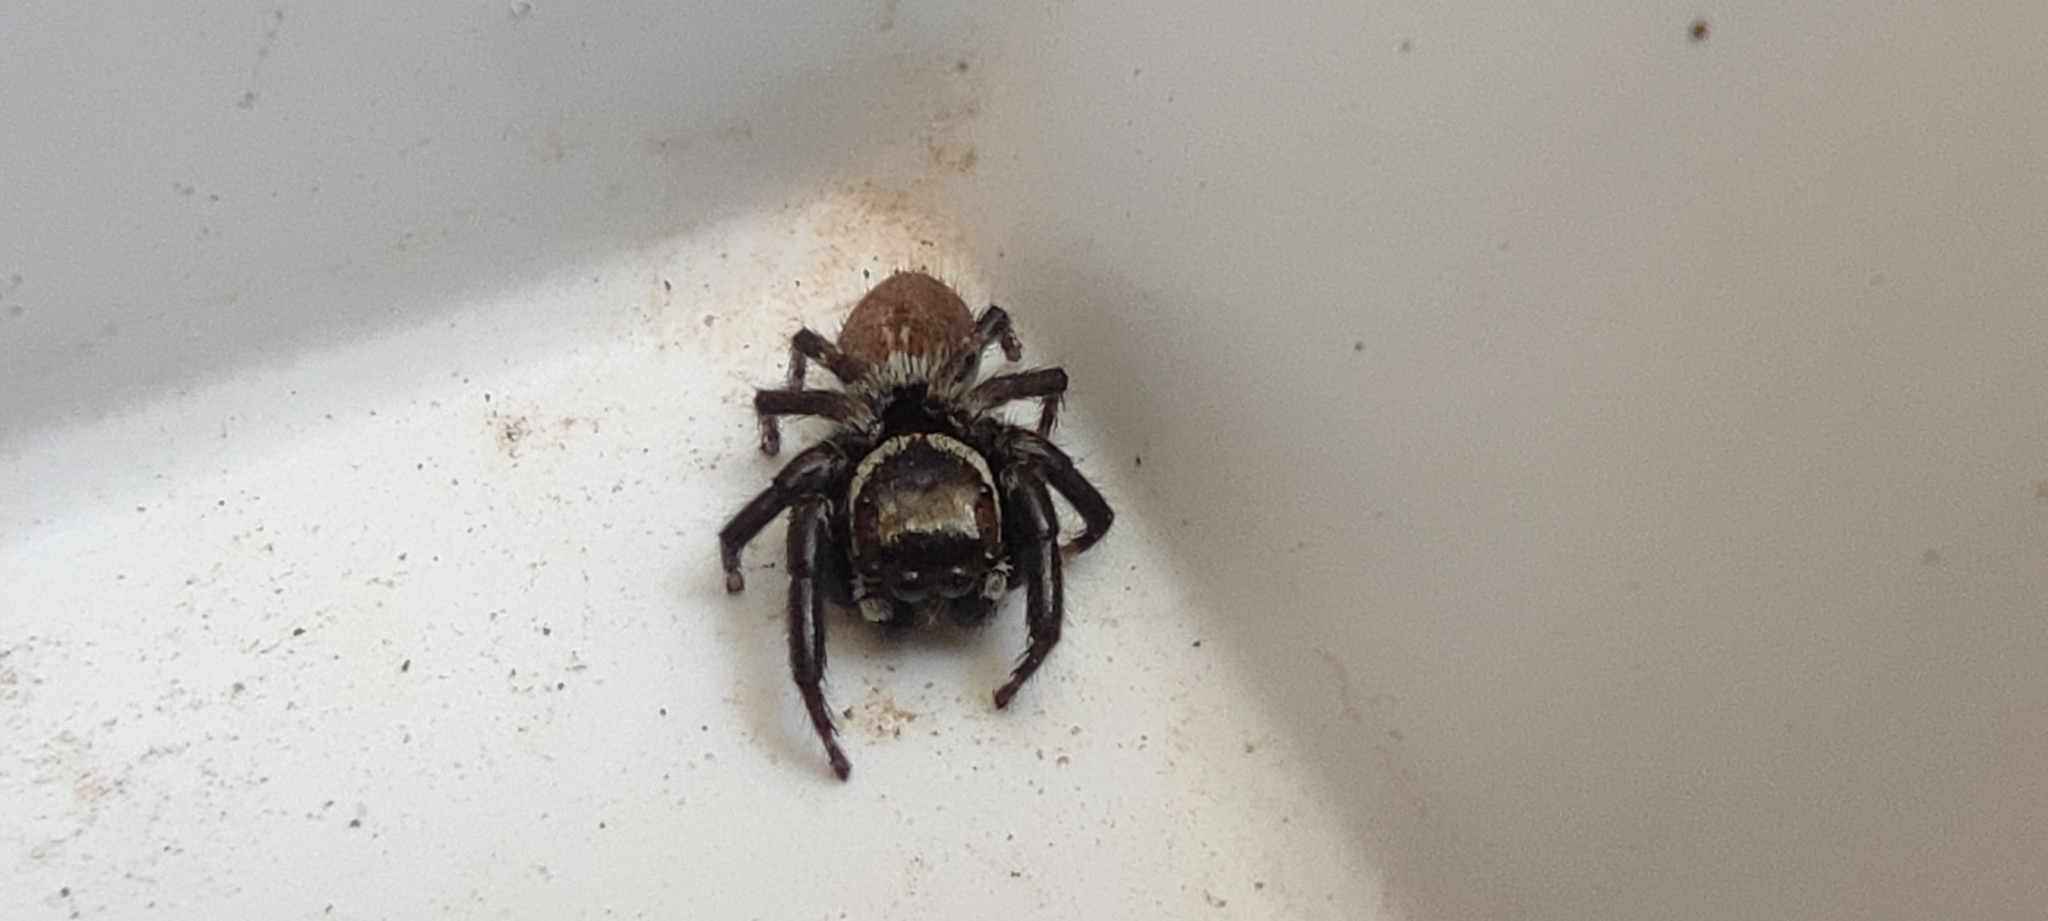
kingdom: Animalia
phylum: Arthropoda
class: Arachnida
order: Araneae
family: Salticidae
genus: Evarcha
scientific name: Evarcha jucunda
